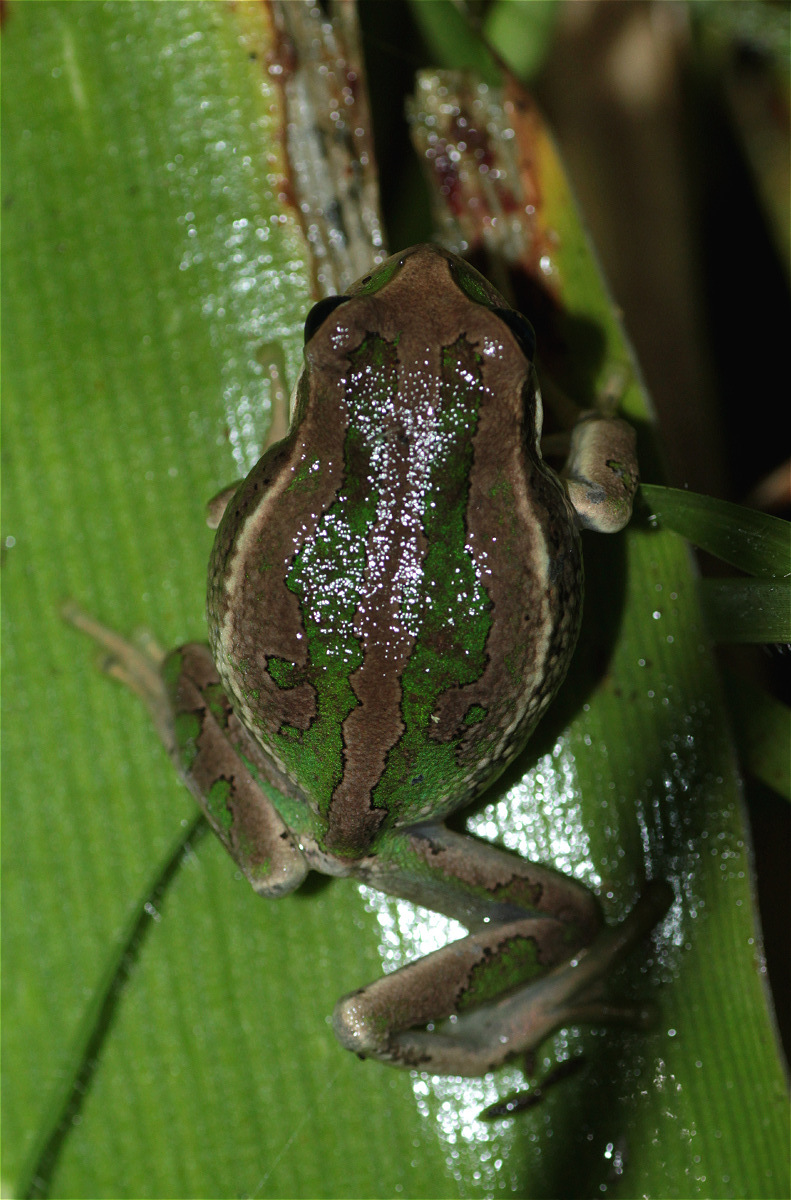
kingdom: Animalia
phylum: Chordata
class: Amphibia
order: Anura
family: Hemiphractidae
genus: Gastrotheca
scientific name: Gastrotheca cuencana
